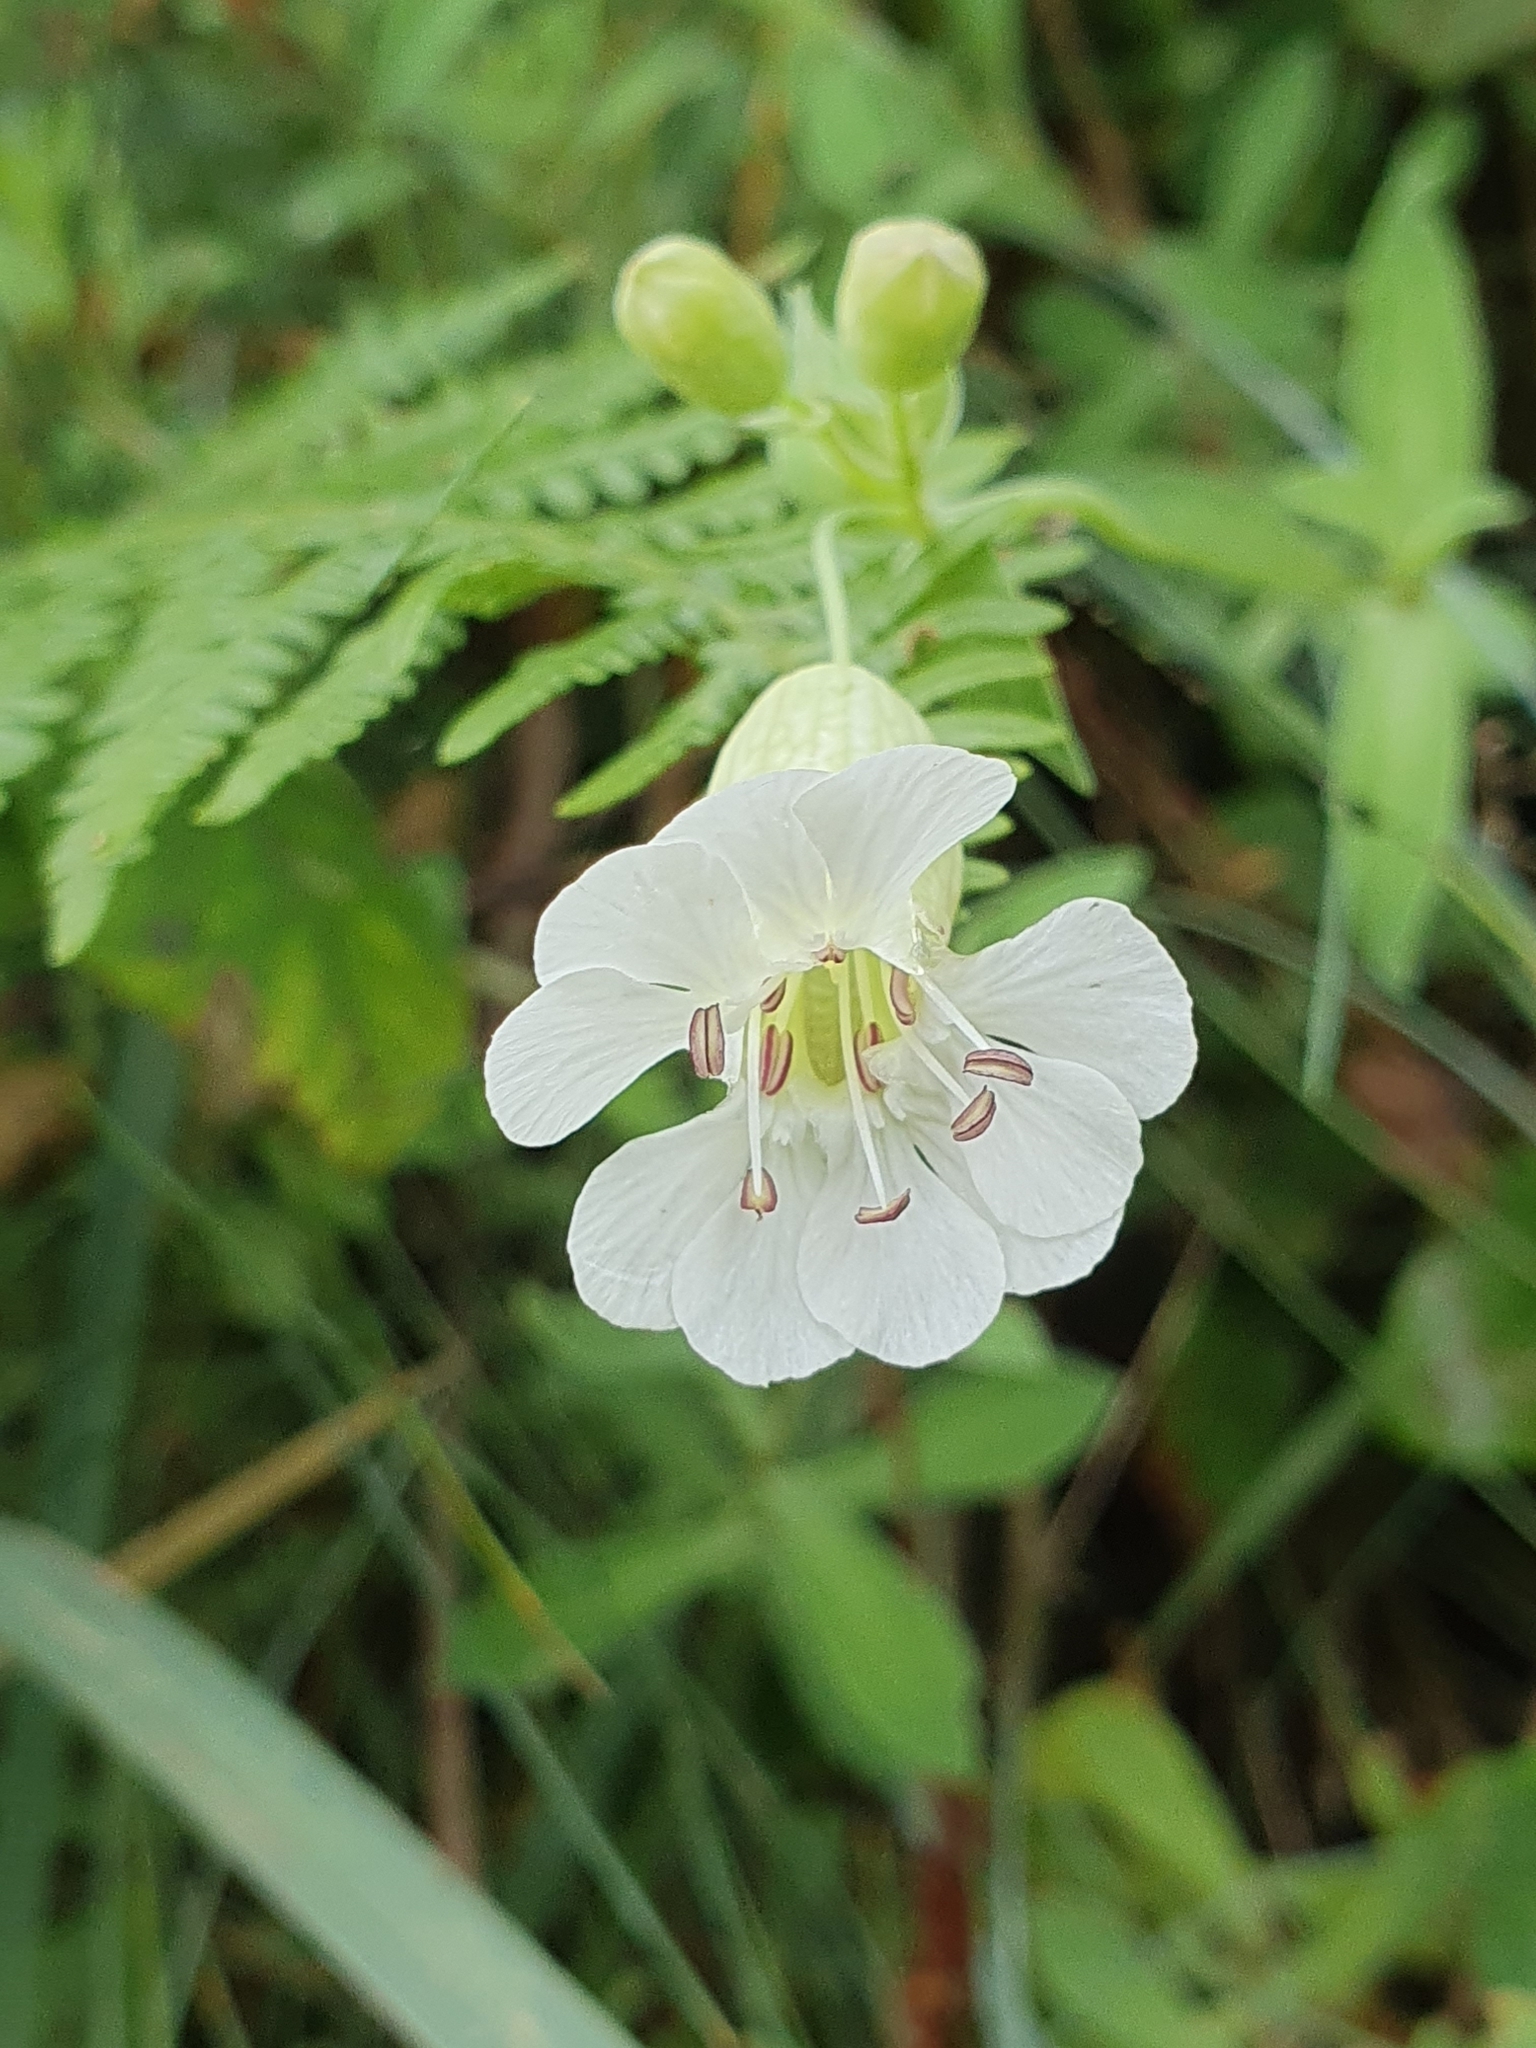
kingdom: Plantae
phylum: Tracheophyta
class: Magnoliopsida
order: Caryophyllales
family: Caryophyllaceae
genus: Silene
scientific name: Silene uniflora
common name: Sea campion
